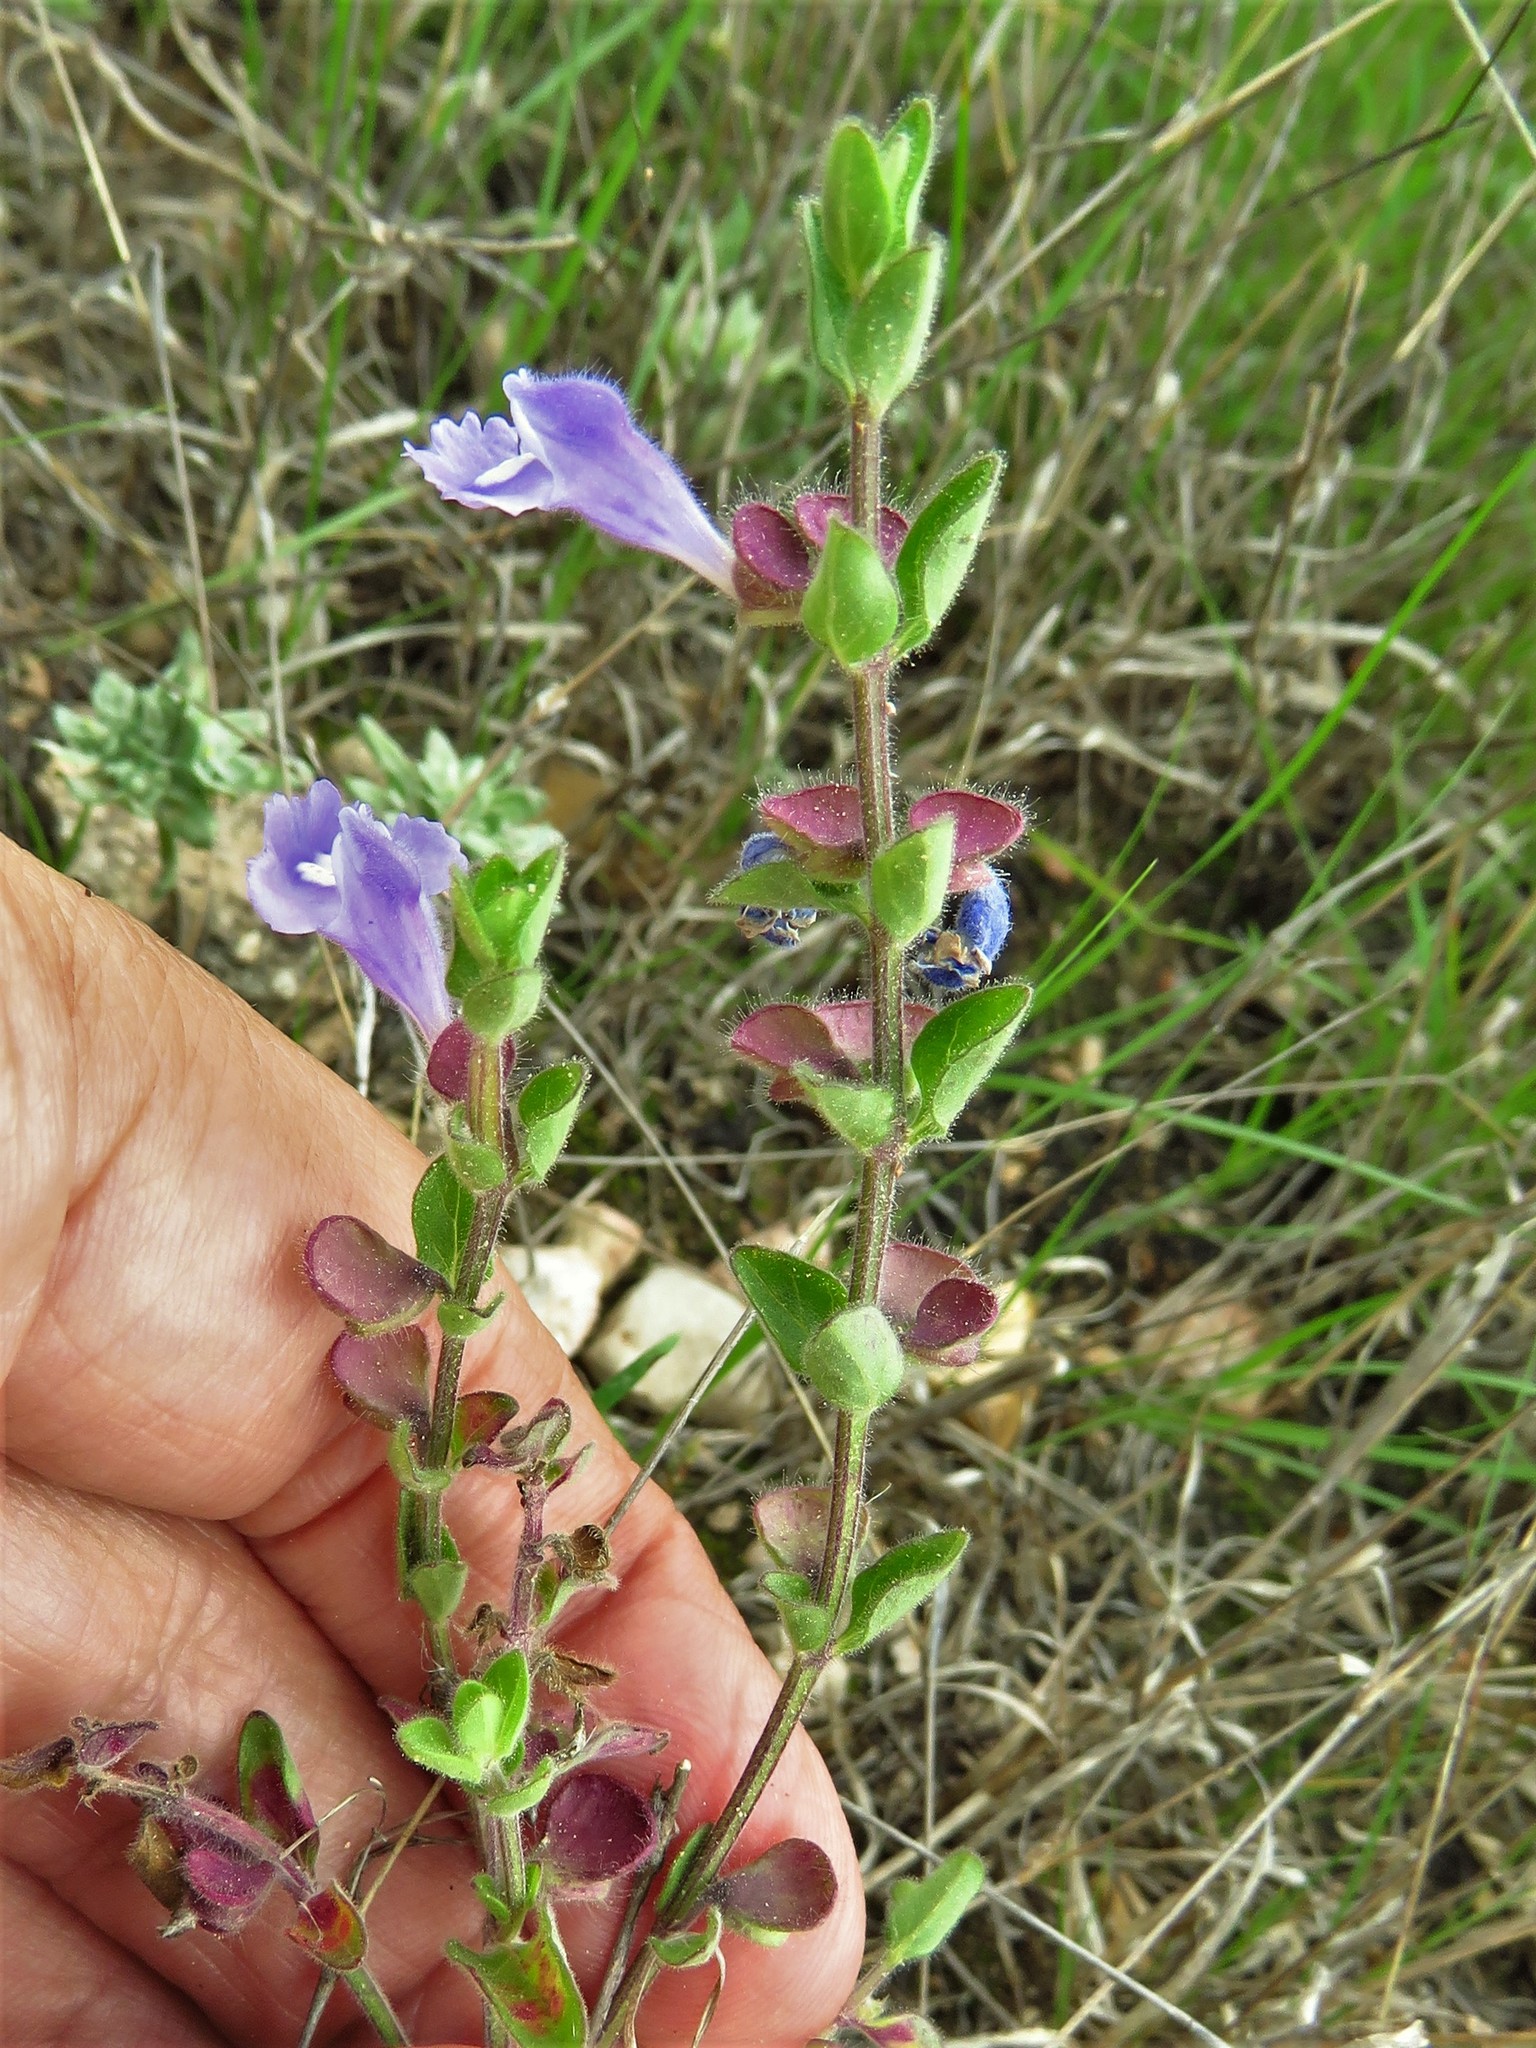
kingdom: Plantae
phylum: Tracheophyta
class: Magnoliopsida
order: Lamiales
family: Lamiaceae
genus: Scutellaria
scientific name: Scutellaria drummondii
